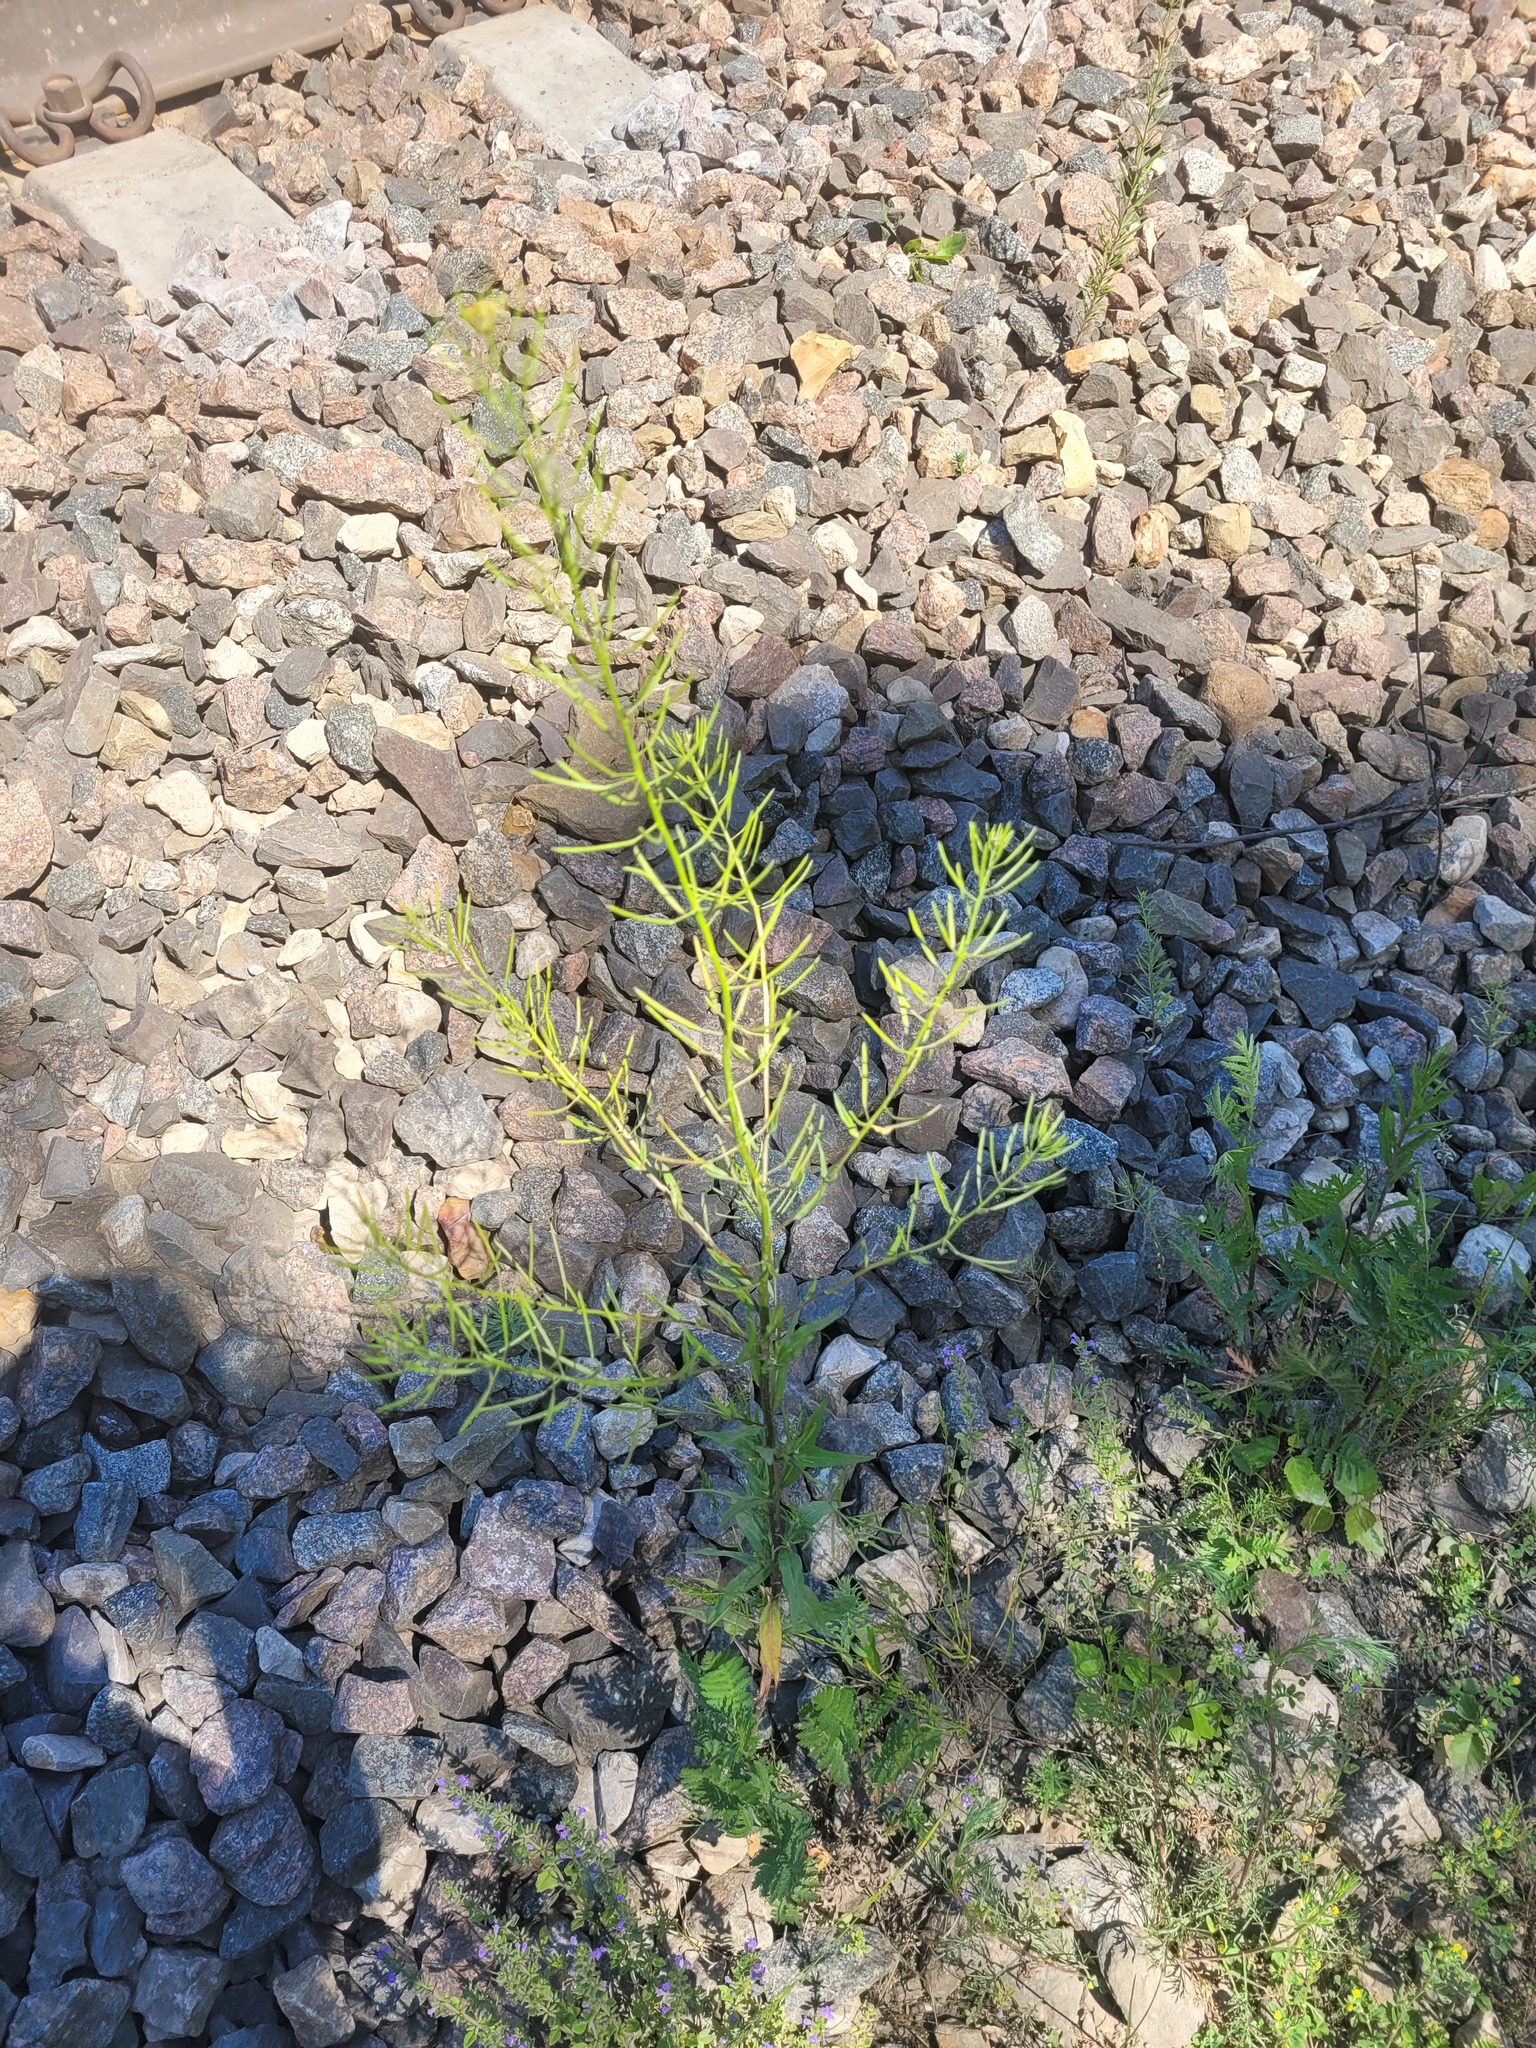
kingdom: Plantae
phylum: Tracheophyta
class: Magnoliopsida
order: Brassicales
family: Brassicaceae
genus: Erysimum
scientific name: Erysimum cheiranthoides
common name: Treacle mustard
